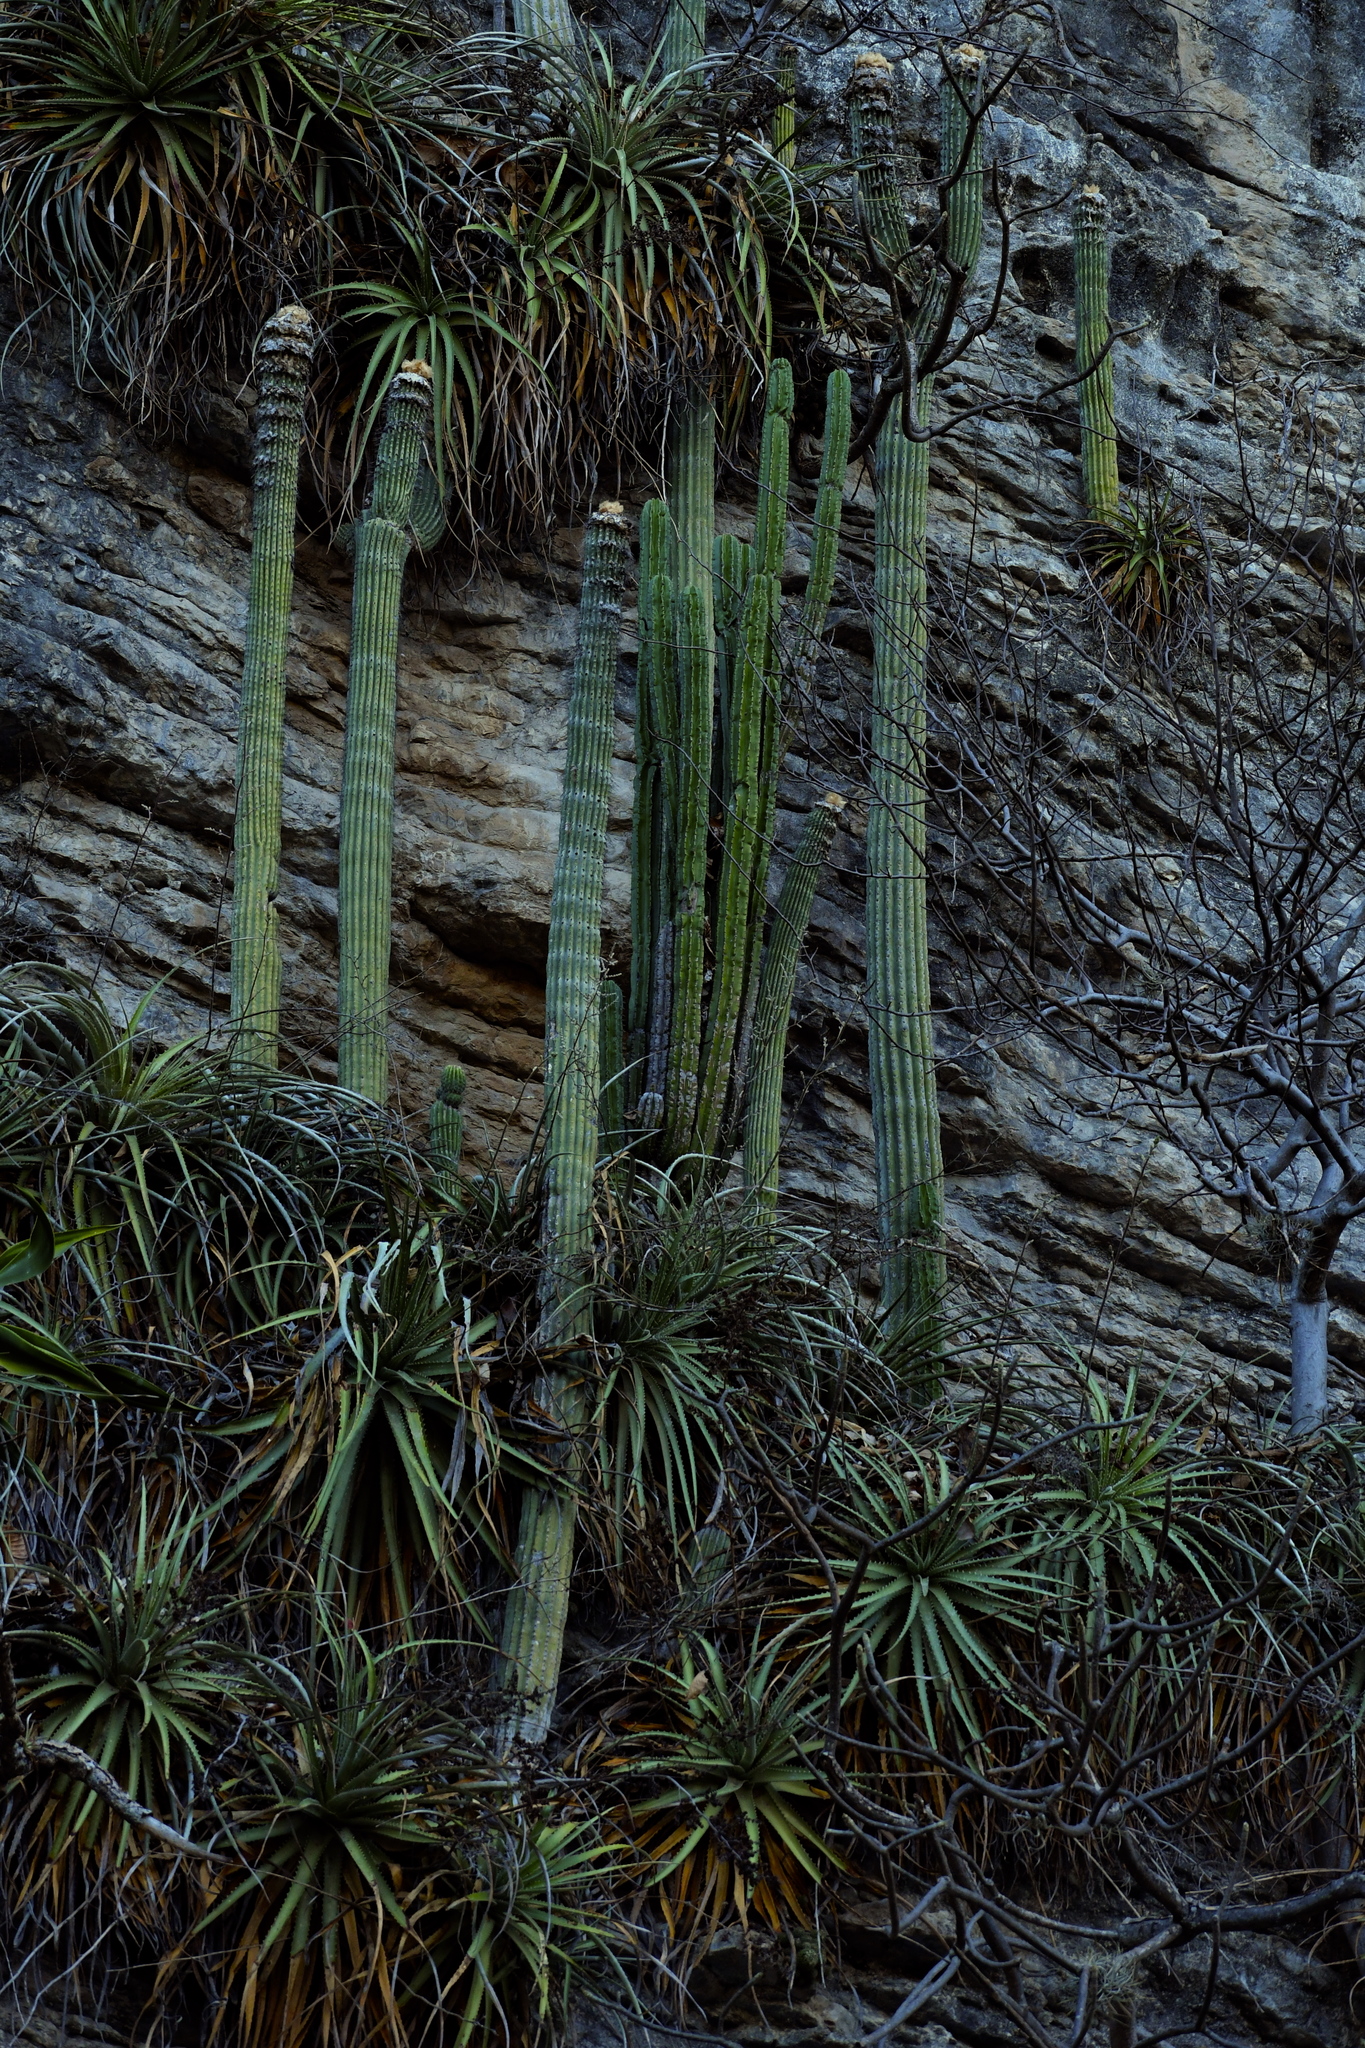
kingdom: Plantae
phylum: Tracheophyta
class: Magnoliopsida
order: Caryophyllales
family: Cactaceae
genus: Cephalocereus
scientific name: Cephalocereus apicicephalium
